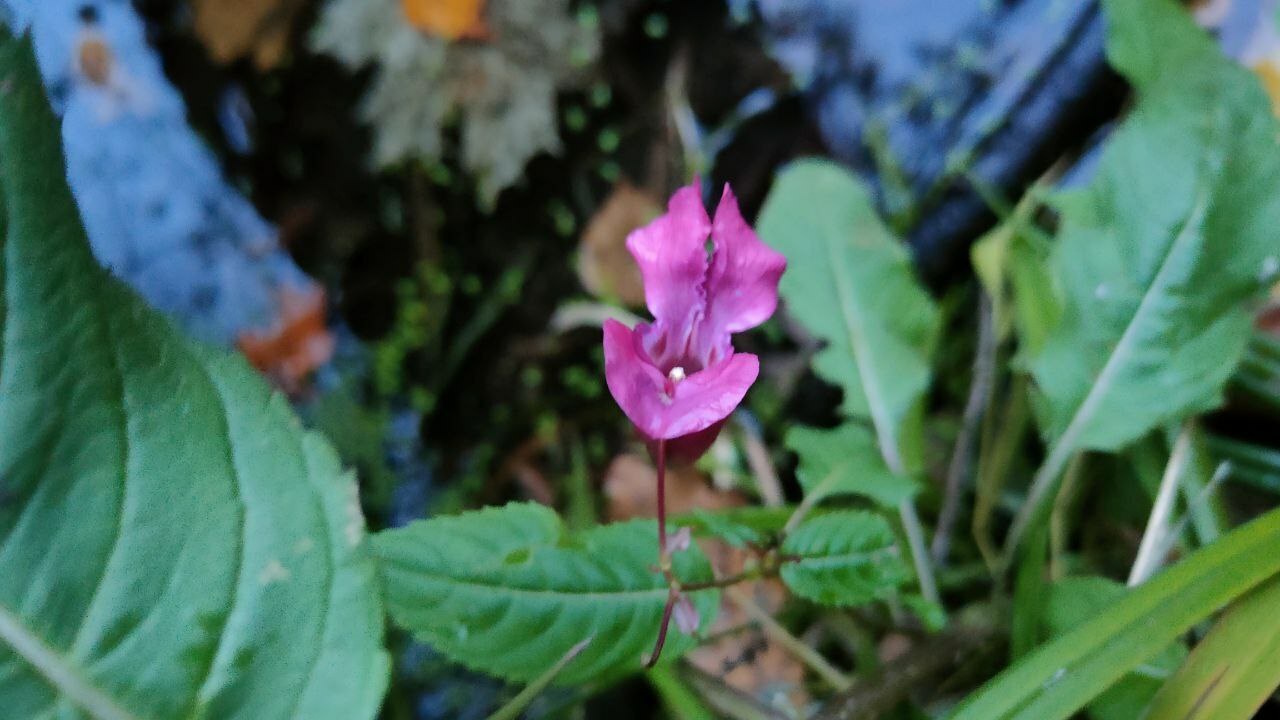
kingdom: Plantae
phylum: Tracheophyta
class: Magnoliopsida
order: Ericales
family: Balsaminaceae
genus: Impatiens
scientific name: Impatiens glandulifera
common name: Himalayan balsam
